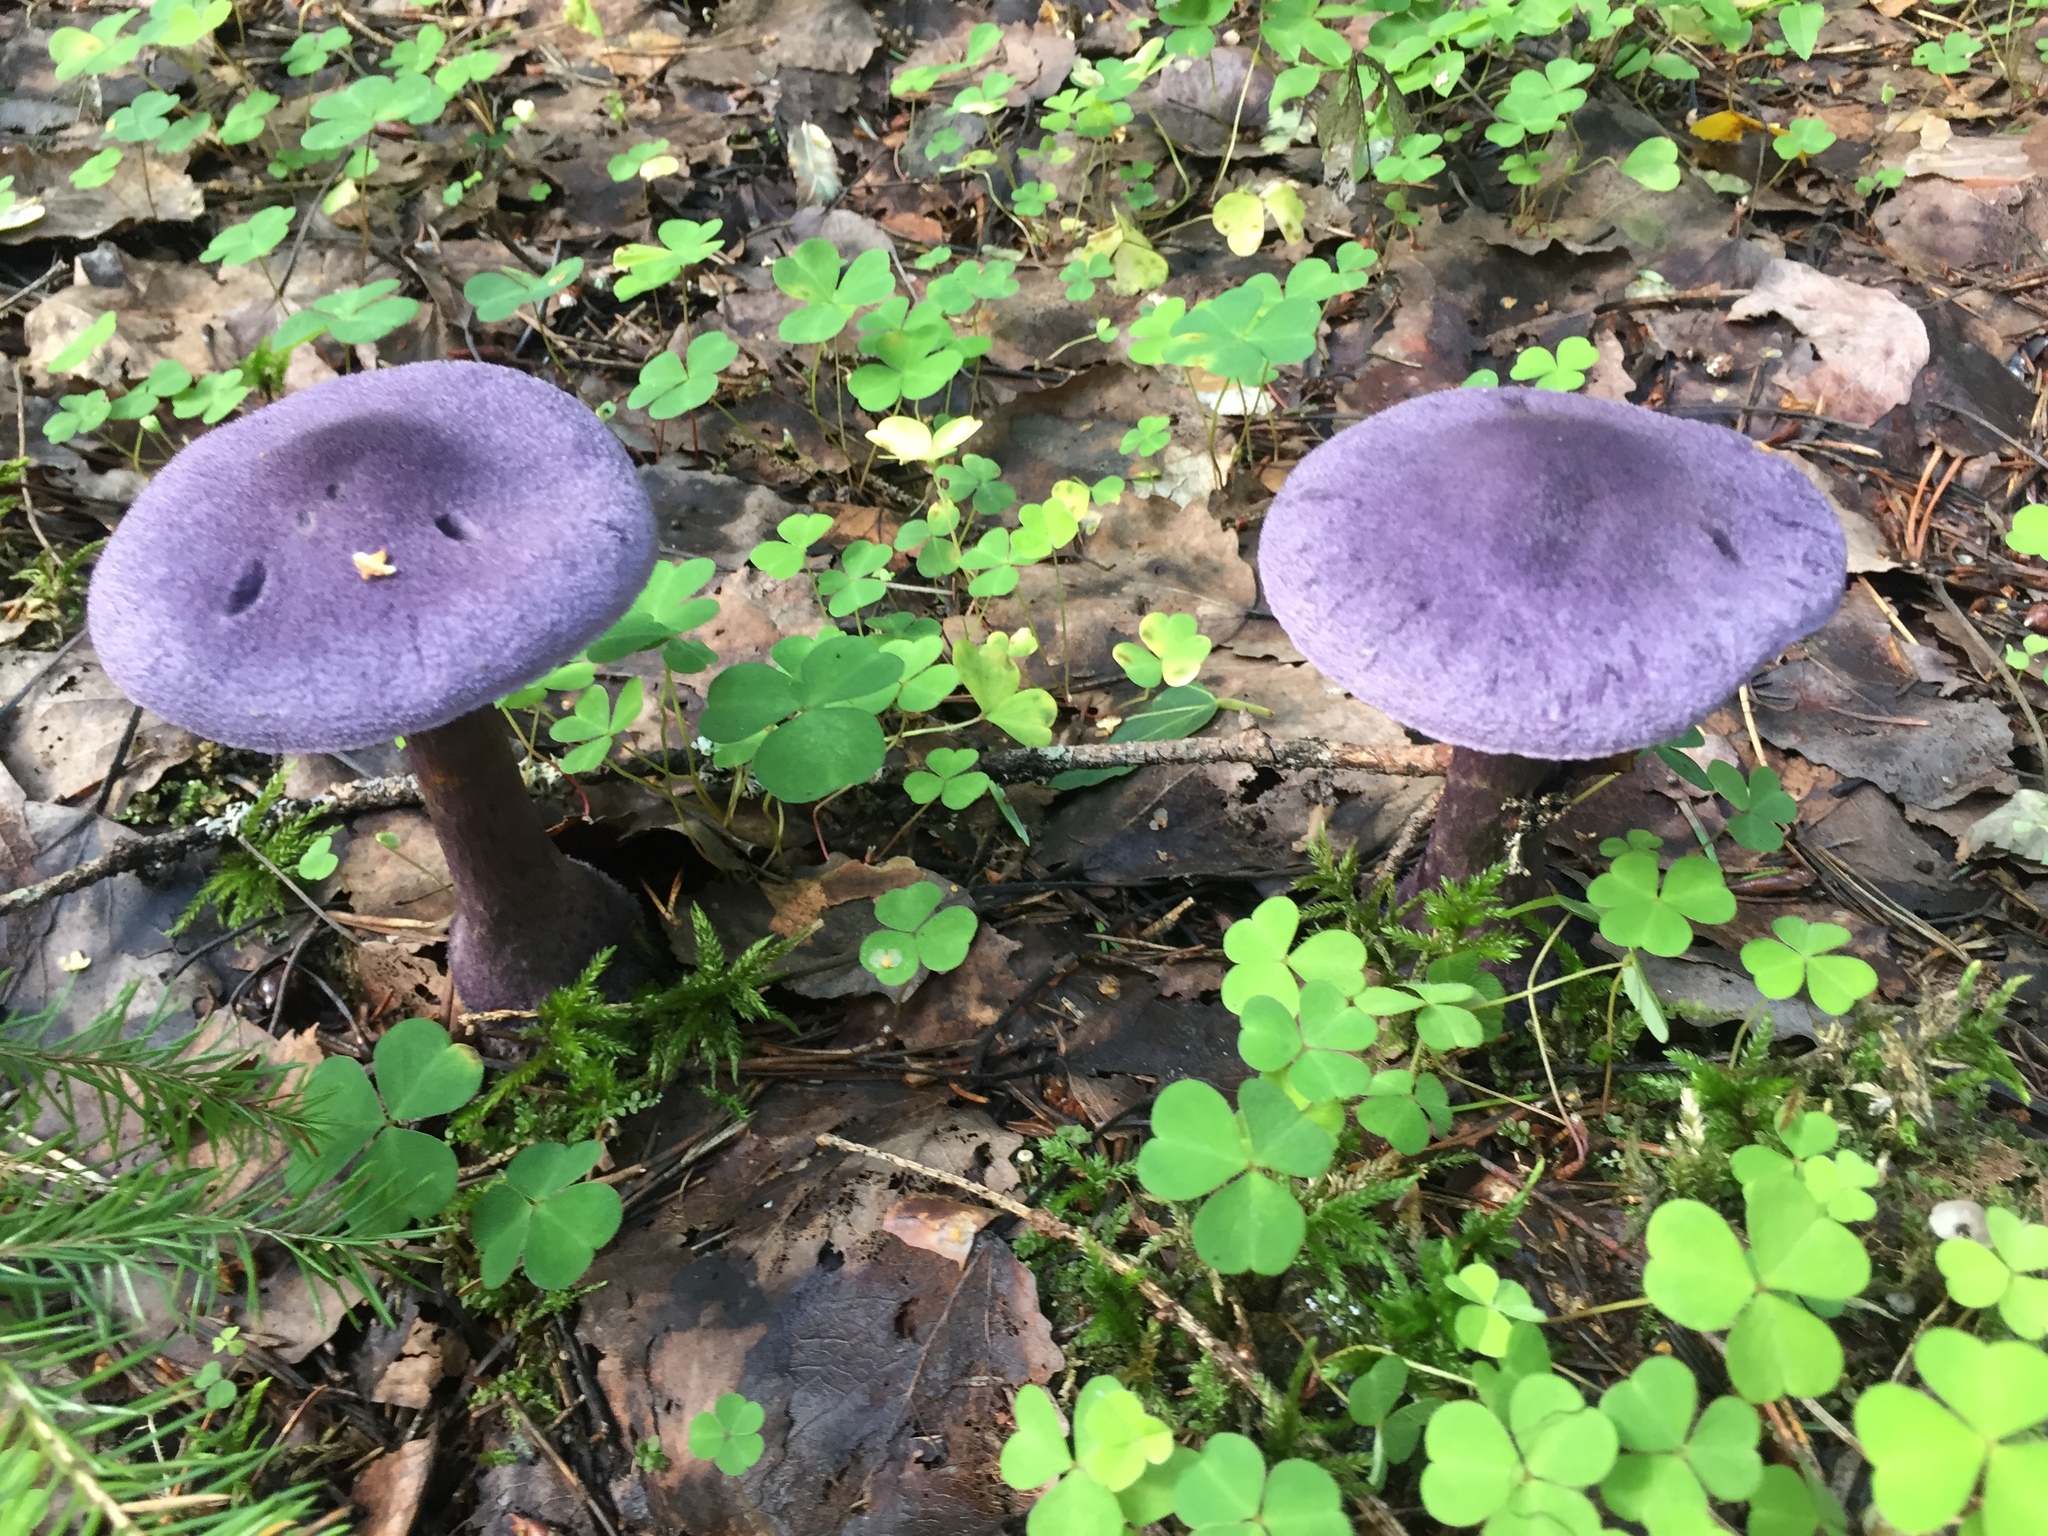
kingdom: Fungi
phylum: Basidiomycota
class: Agaricomycetes
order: Agaricales
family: Cortinariaceae
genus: Cortinarius
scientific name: Cortinarius violaceus
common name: Violet webcap
